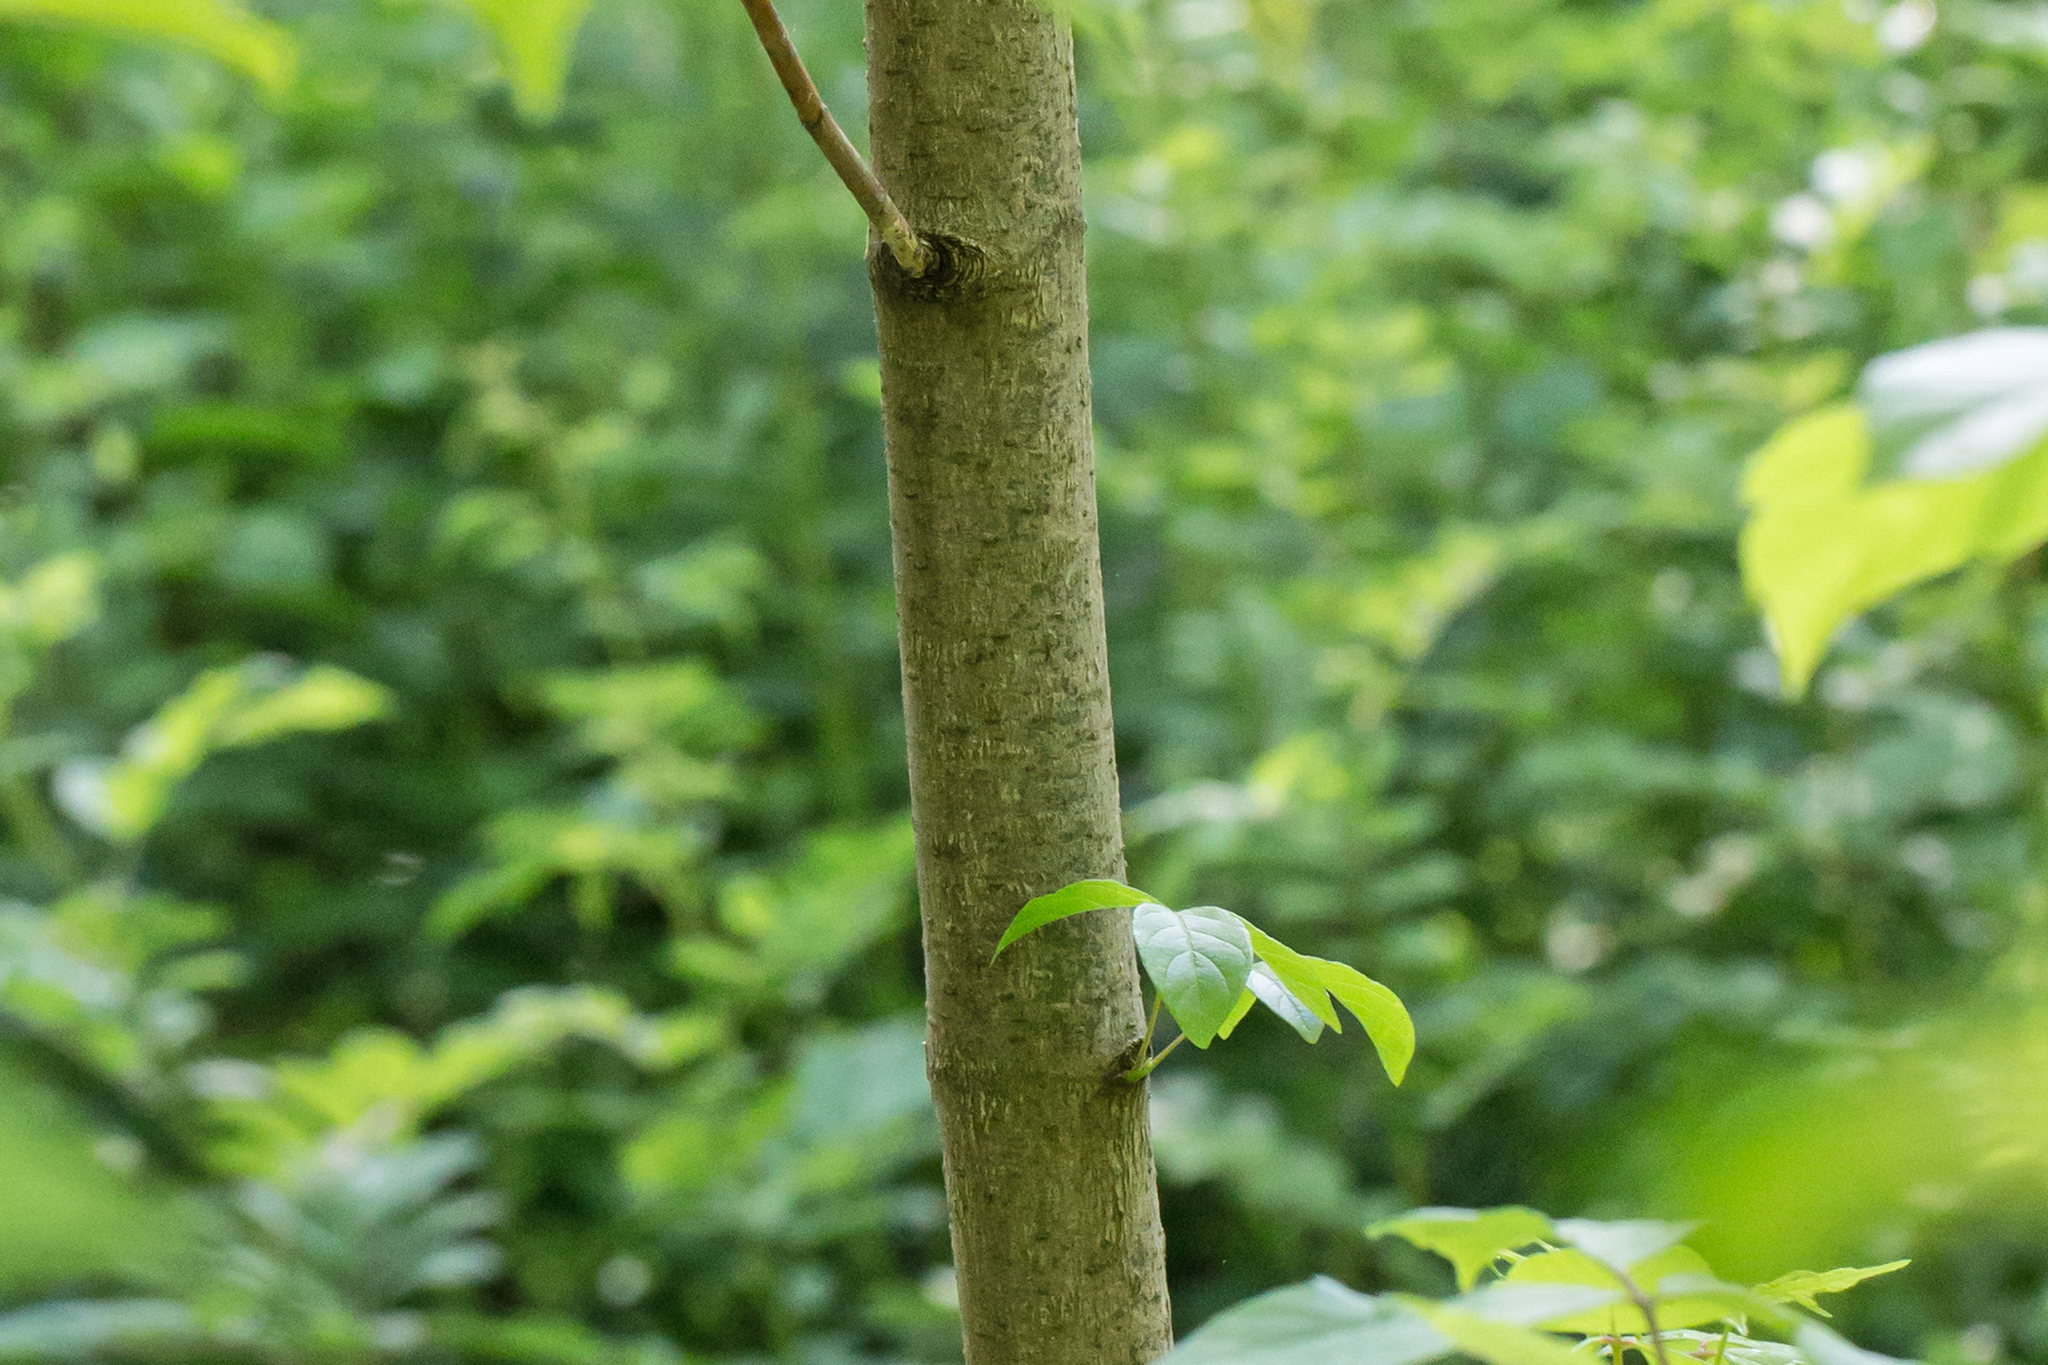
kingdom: Plantae
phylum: Tracheophyta
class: Magnoliopsida
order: Sapindales
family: Sapindaceae
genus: Acer
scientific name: Acer negundo
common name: Ashleaf maple
